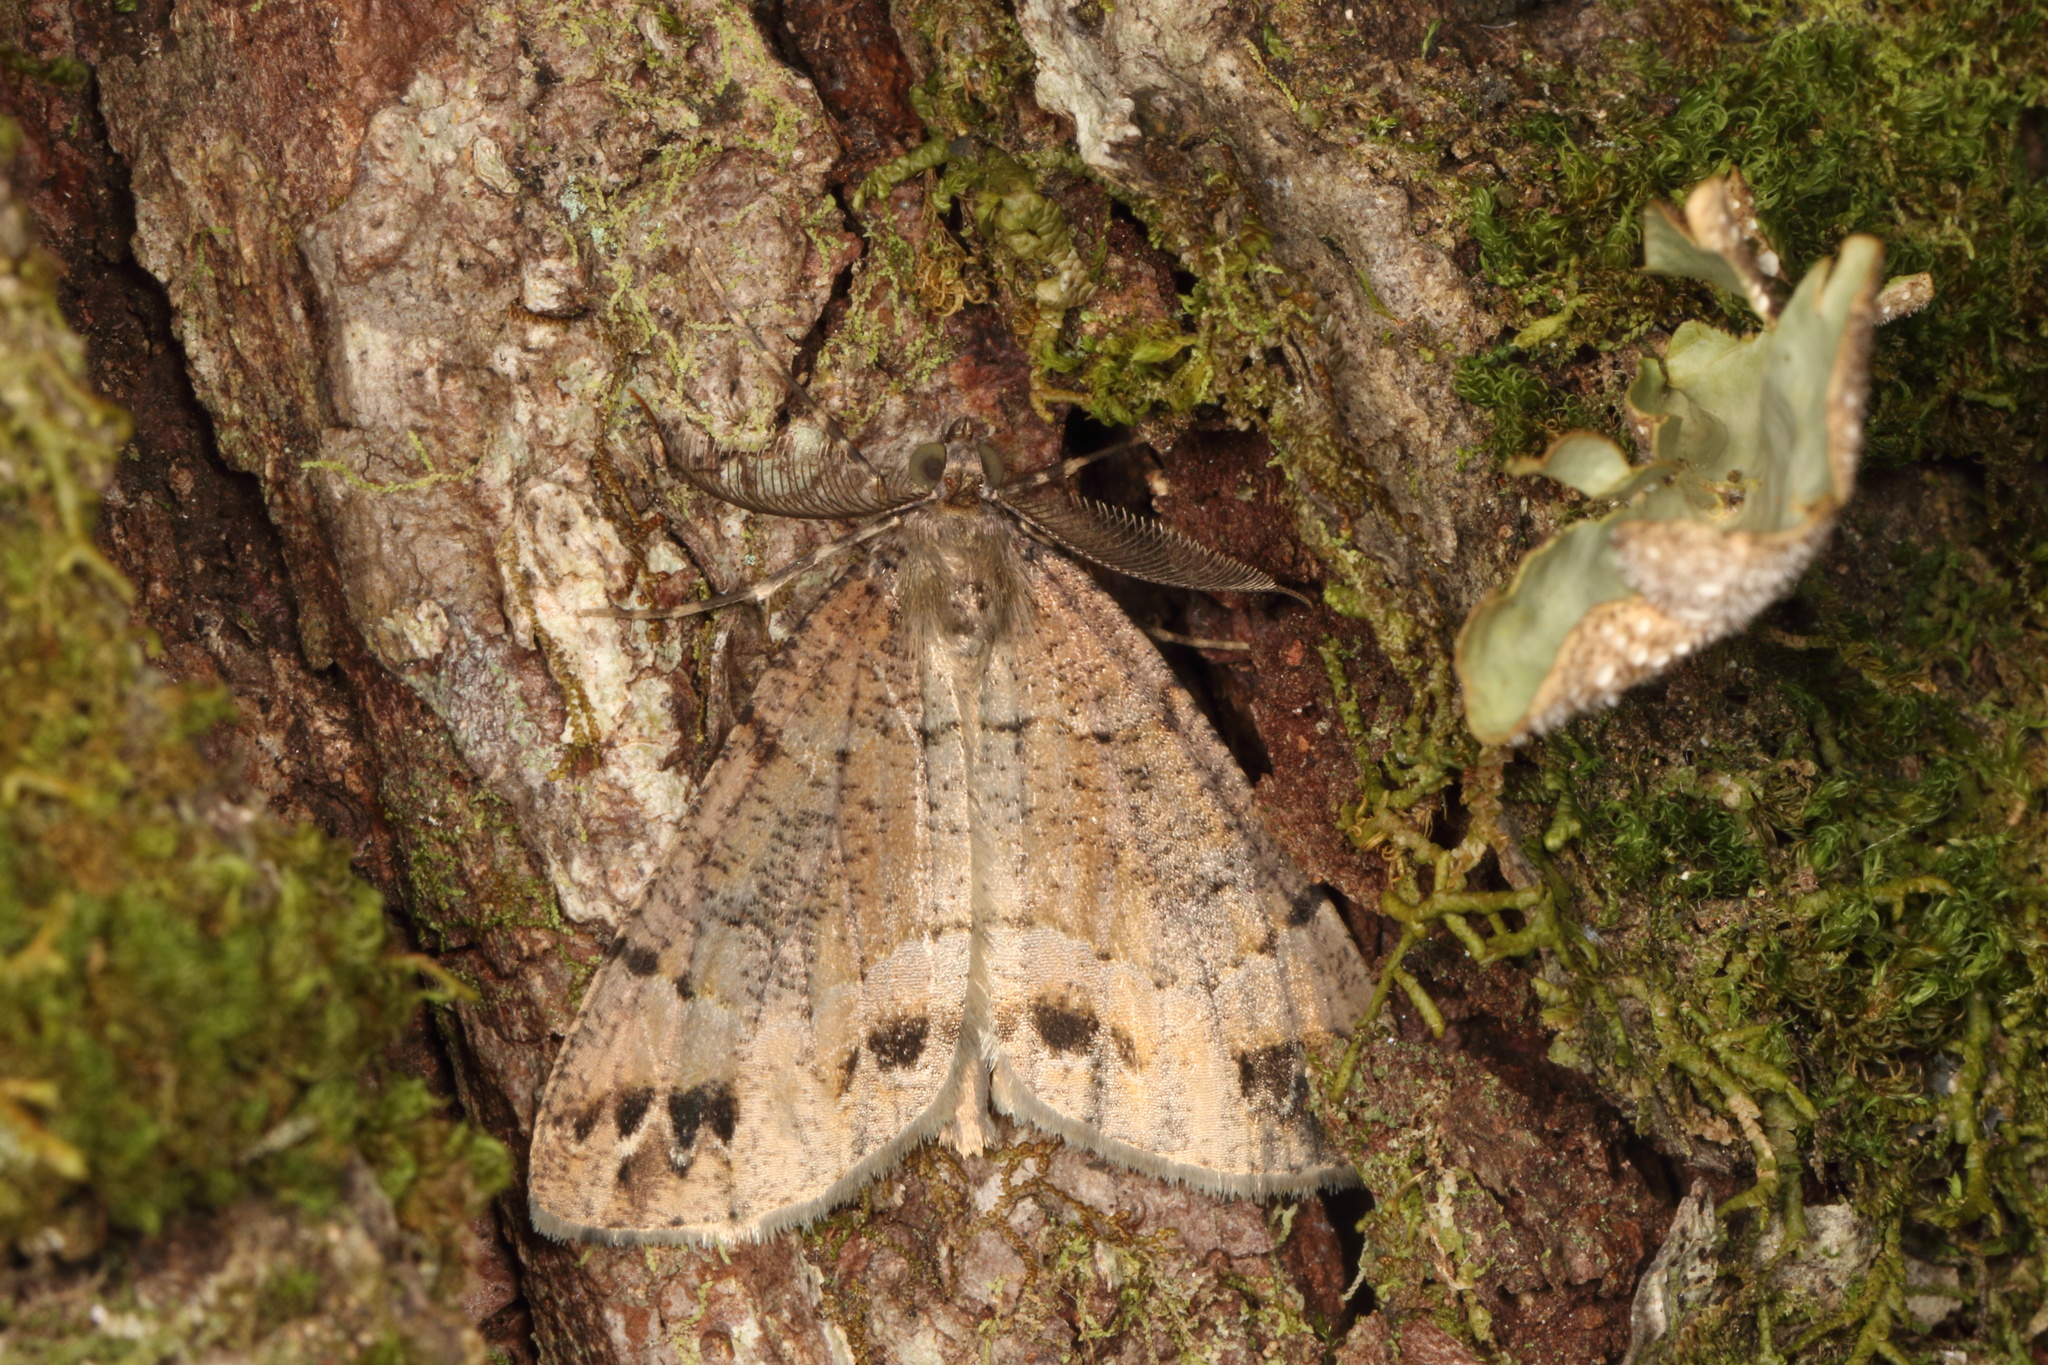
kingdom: Animalia
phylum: Arthropoda
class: Insecta
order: Lepidoptera
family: Geometridae
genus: Pseudocoremia
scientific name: Pseudocoremia productata
